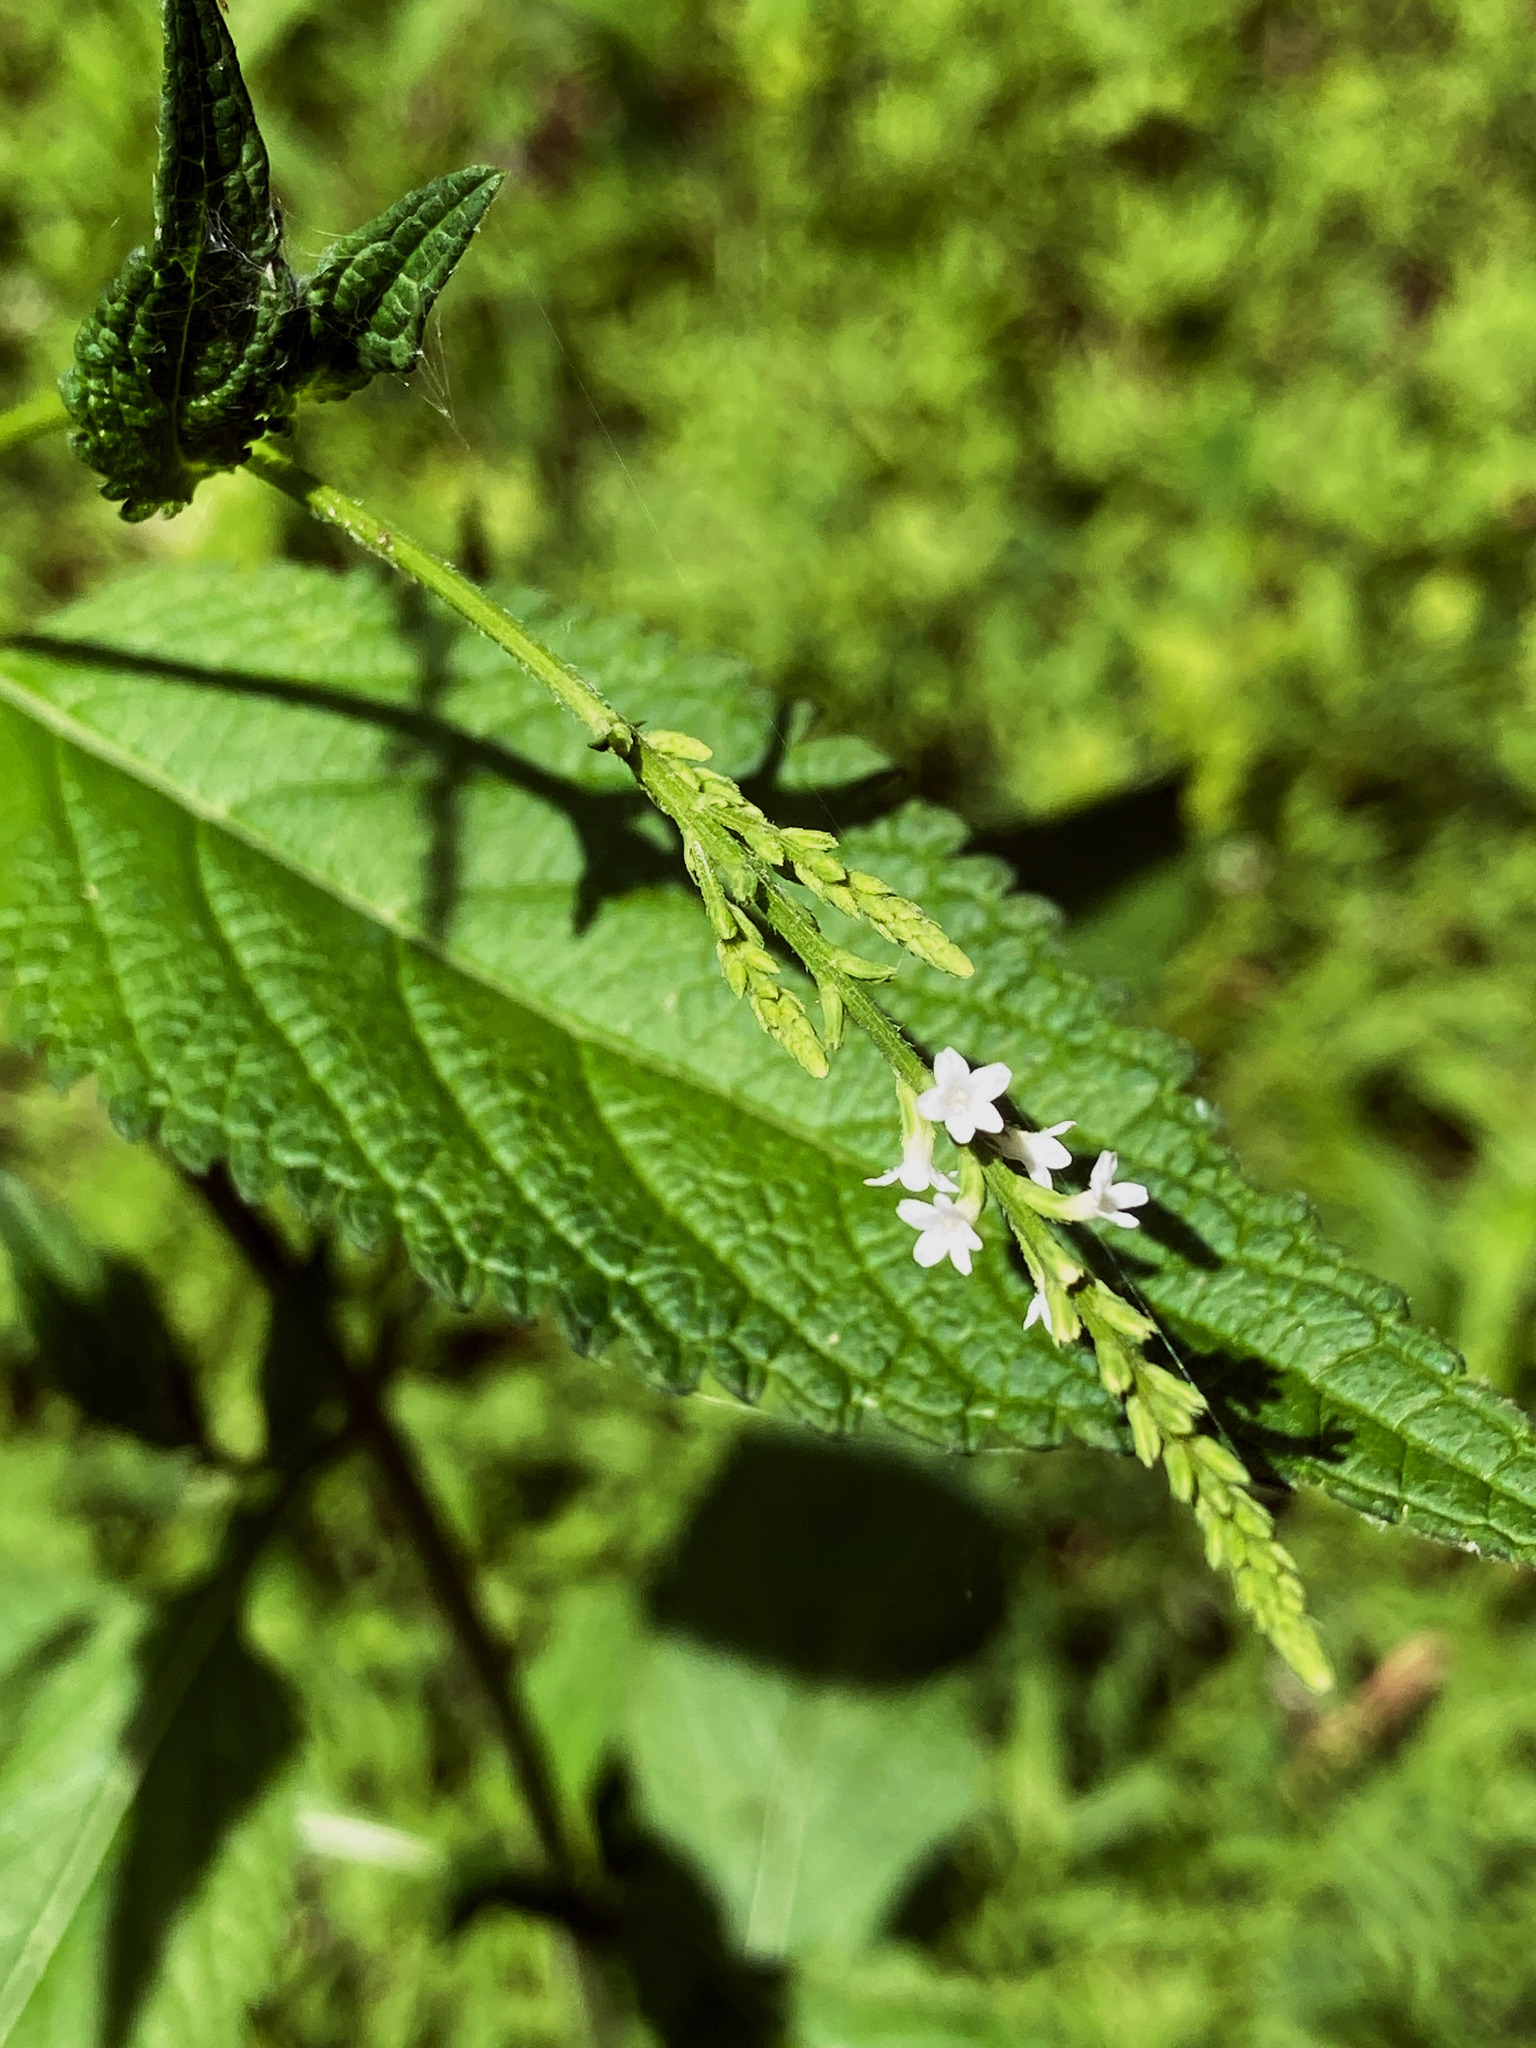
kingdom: Plantae
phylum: Tracheophyta
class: Magnoliopsida
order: Lamiales
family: Verbenaceae
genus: Verbena
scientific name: Verbena urticifolia
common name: Nettle-leaved vervain
